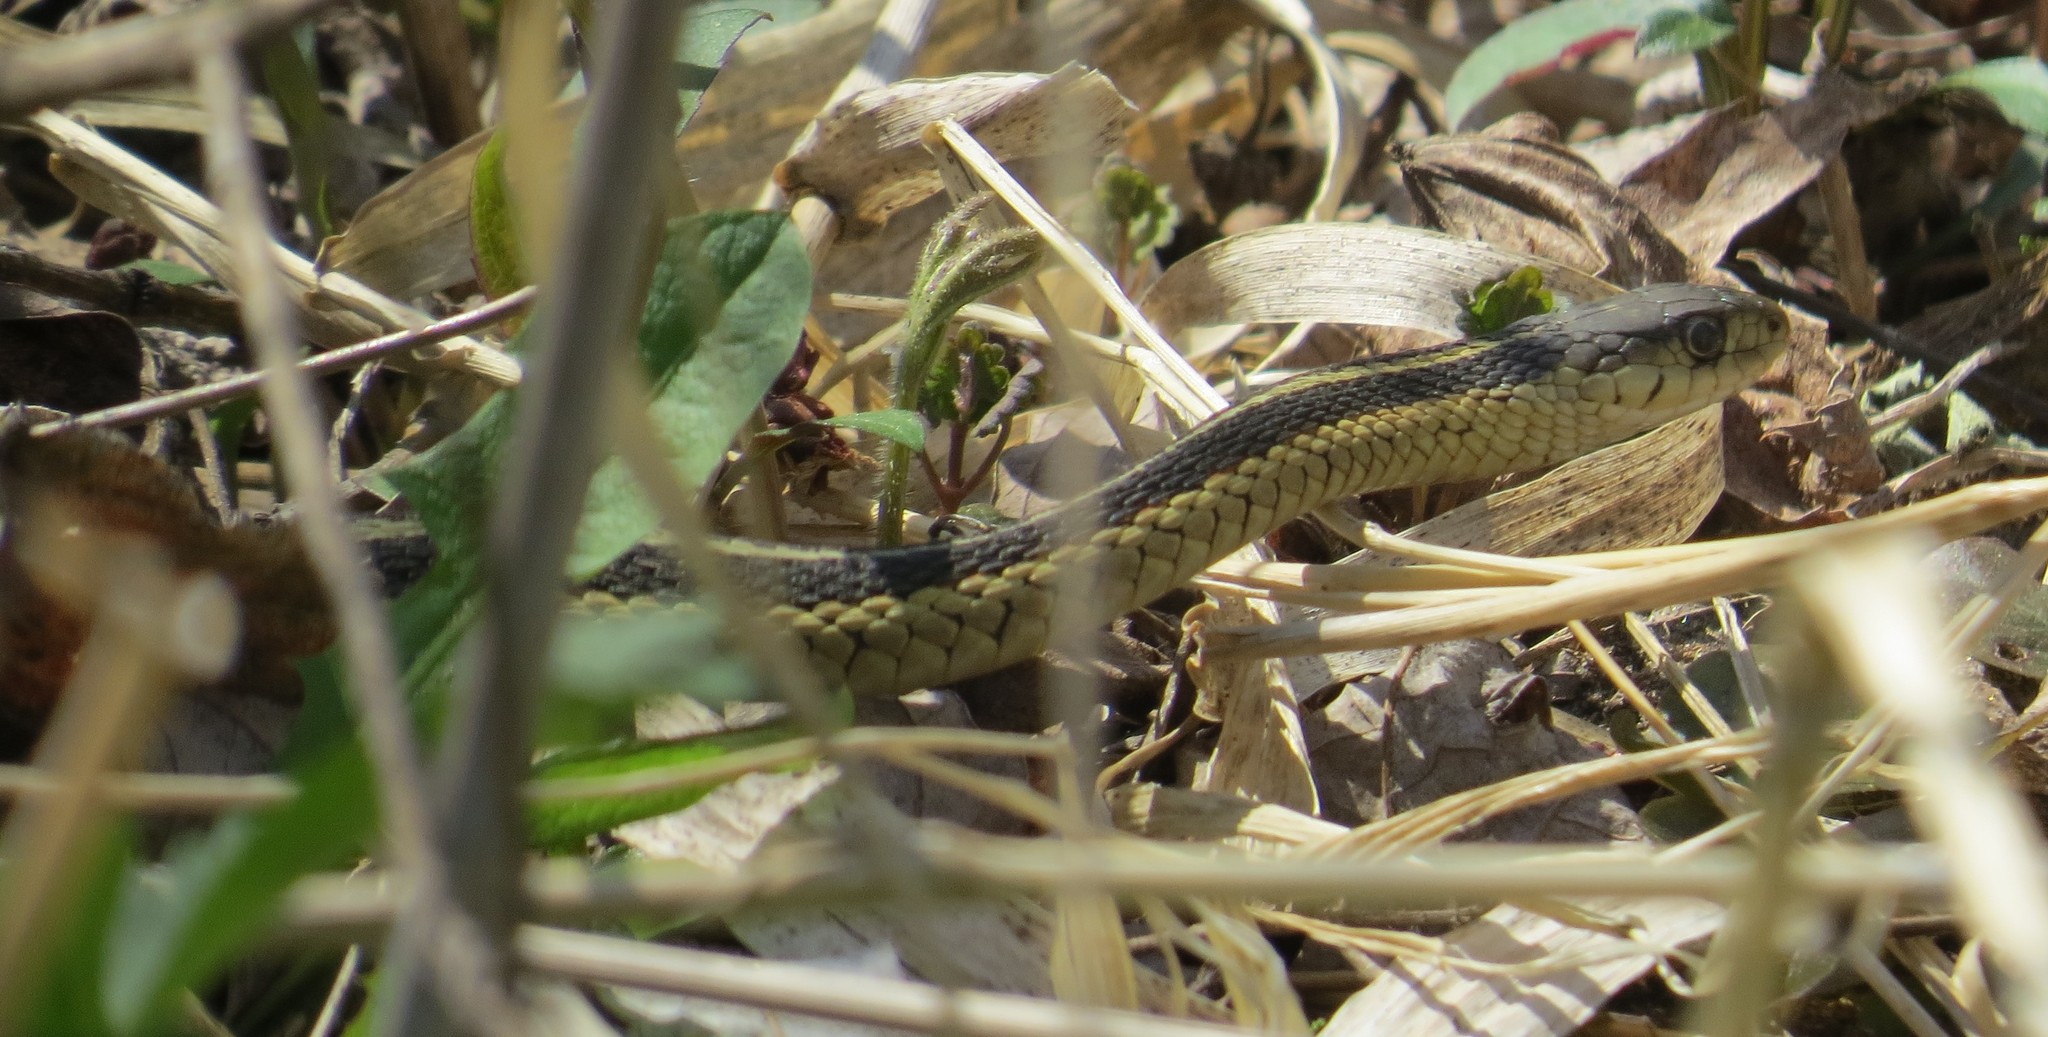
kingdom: Animalia
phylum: Chordata
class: Squamata
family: Colubridae
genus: Thamnophis
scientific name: Thamnophis sirtalis
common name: Common garter snake
